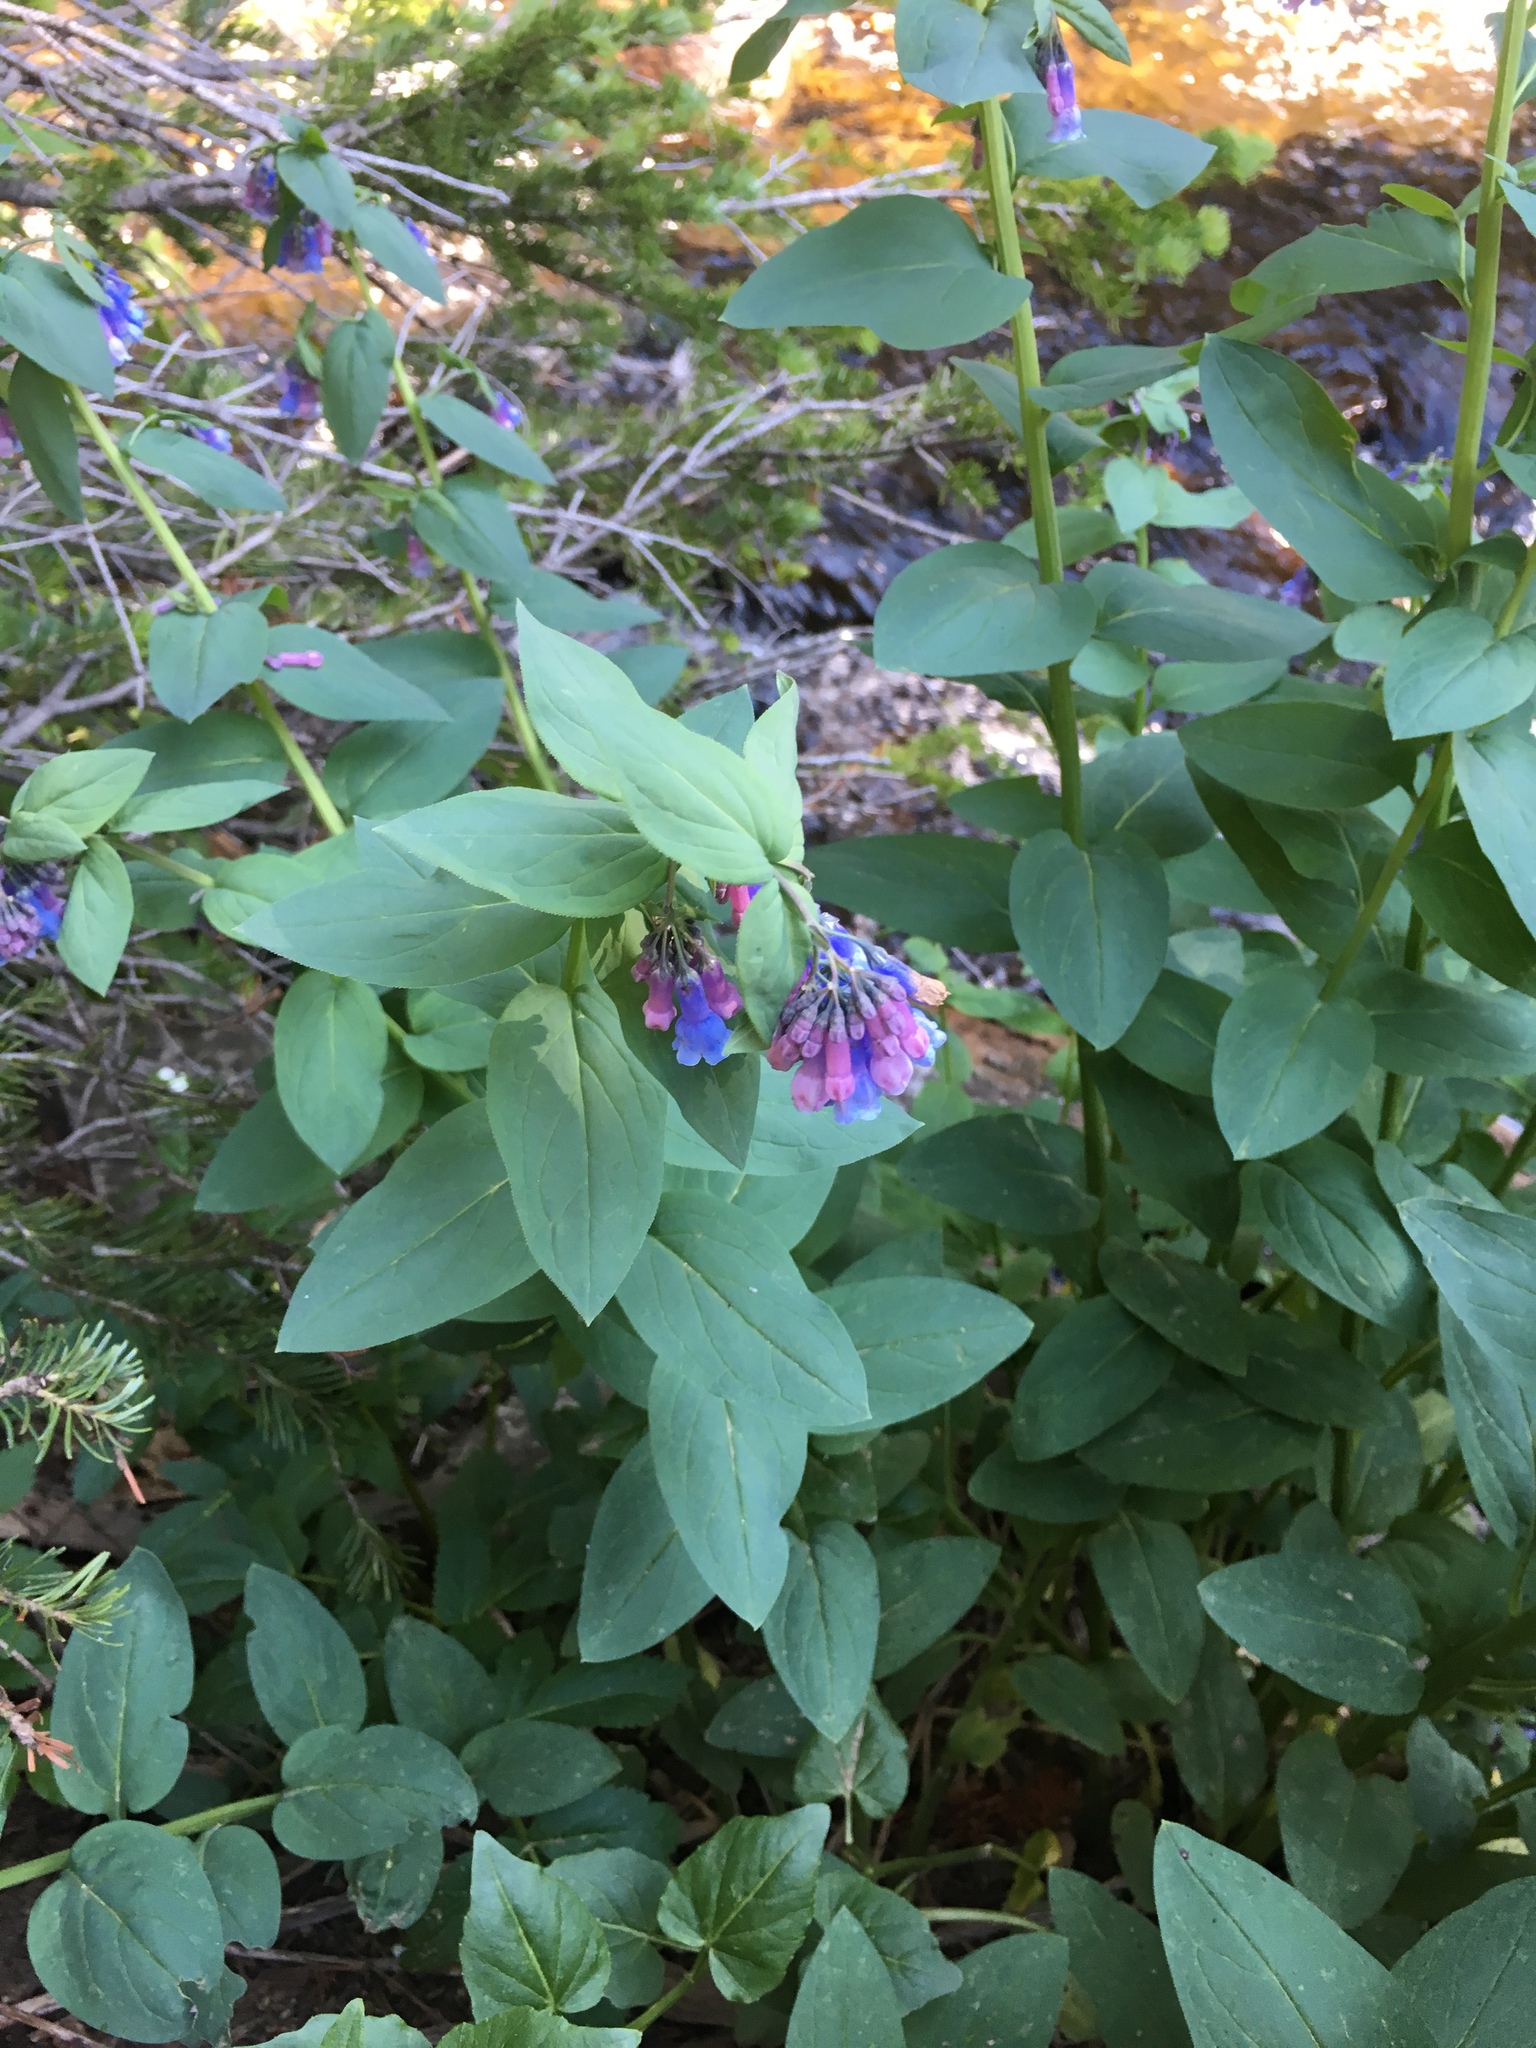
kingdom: Plantae
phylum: Tracheophyta
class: Magnoliopsida
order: Boraginales
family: Boraginaceae
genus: Mertensia
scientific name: Mertensia ciliata
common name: Tall chiming-bells
